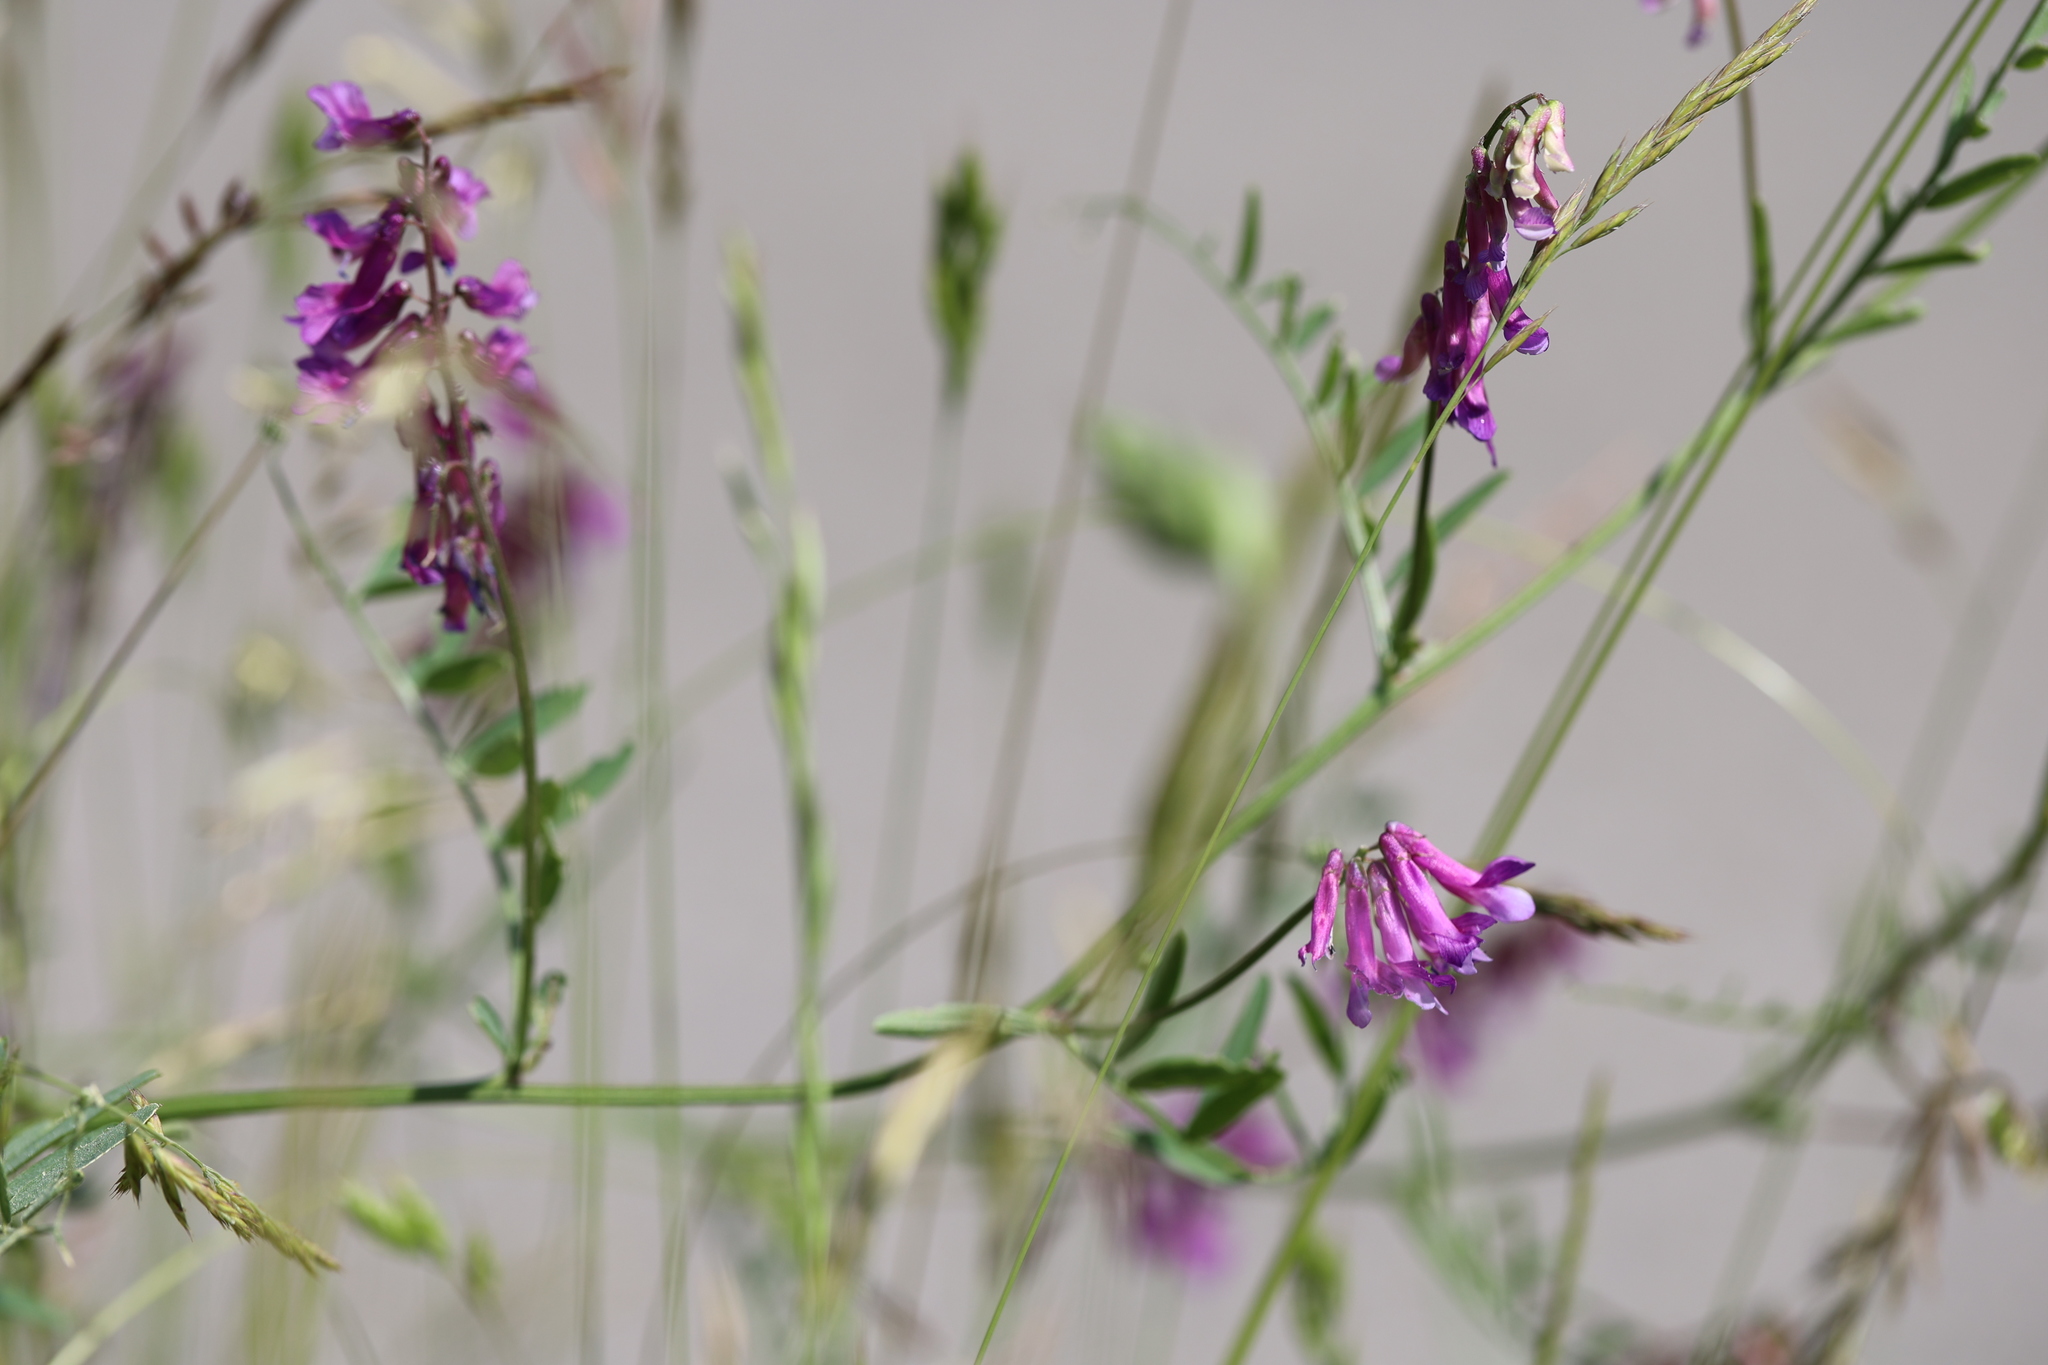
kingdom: Plantae
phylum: Tracheophyta
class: Magnoliopsida
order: Fabales
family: Fabaceae
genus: Vicia
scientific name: Vicia villosa
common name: Fodder vetch
